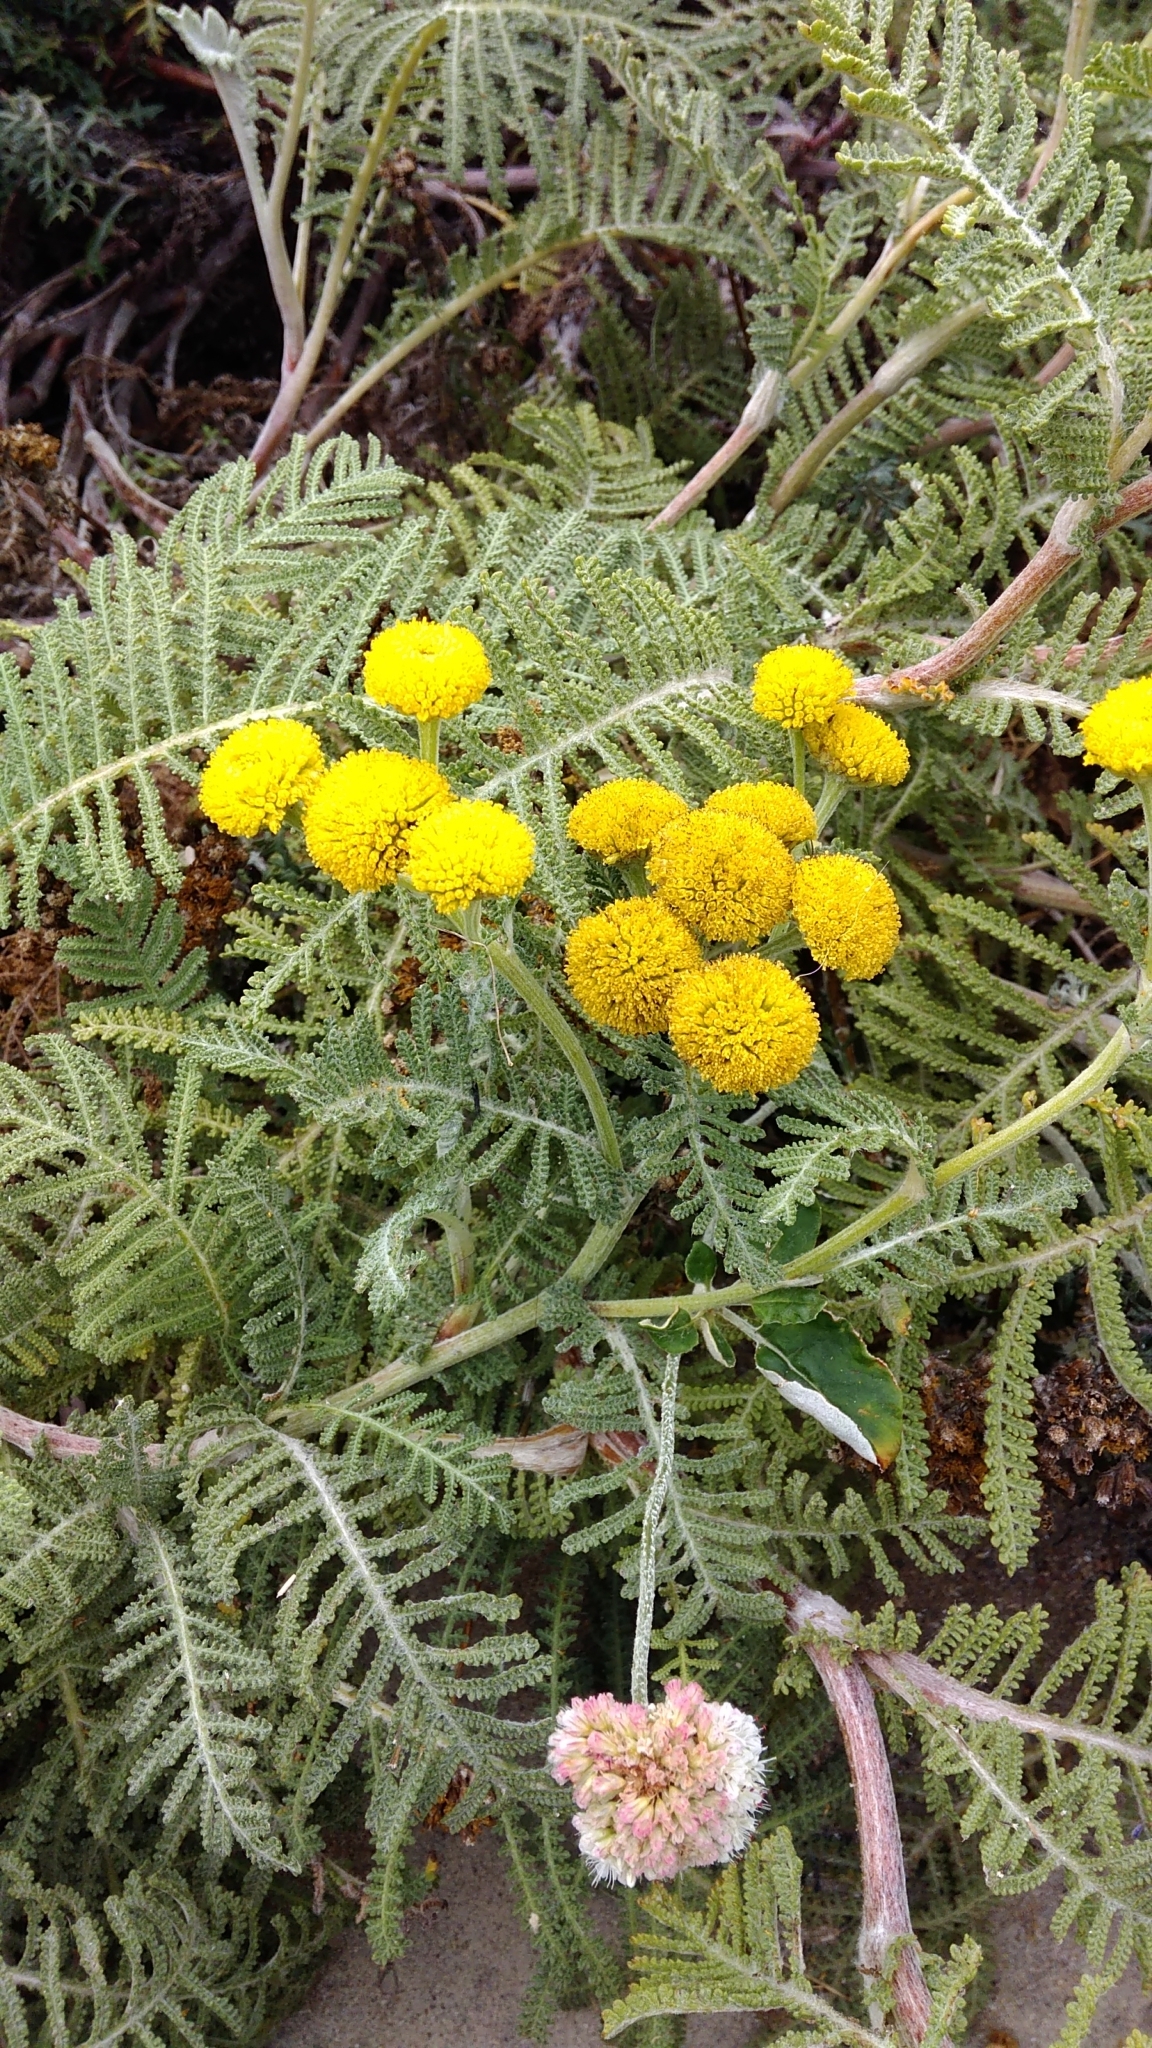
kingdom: Plantae
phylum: Tracheophyta
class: Magnoliopsida
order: Asterales
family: Asteraceae
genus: Tanacetum
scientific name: Tanacetum bipinnatum
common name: Dwarf tansy
